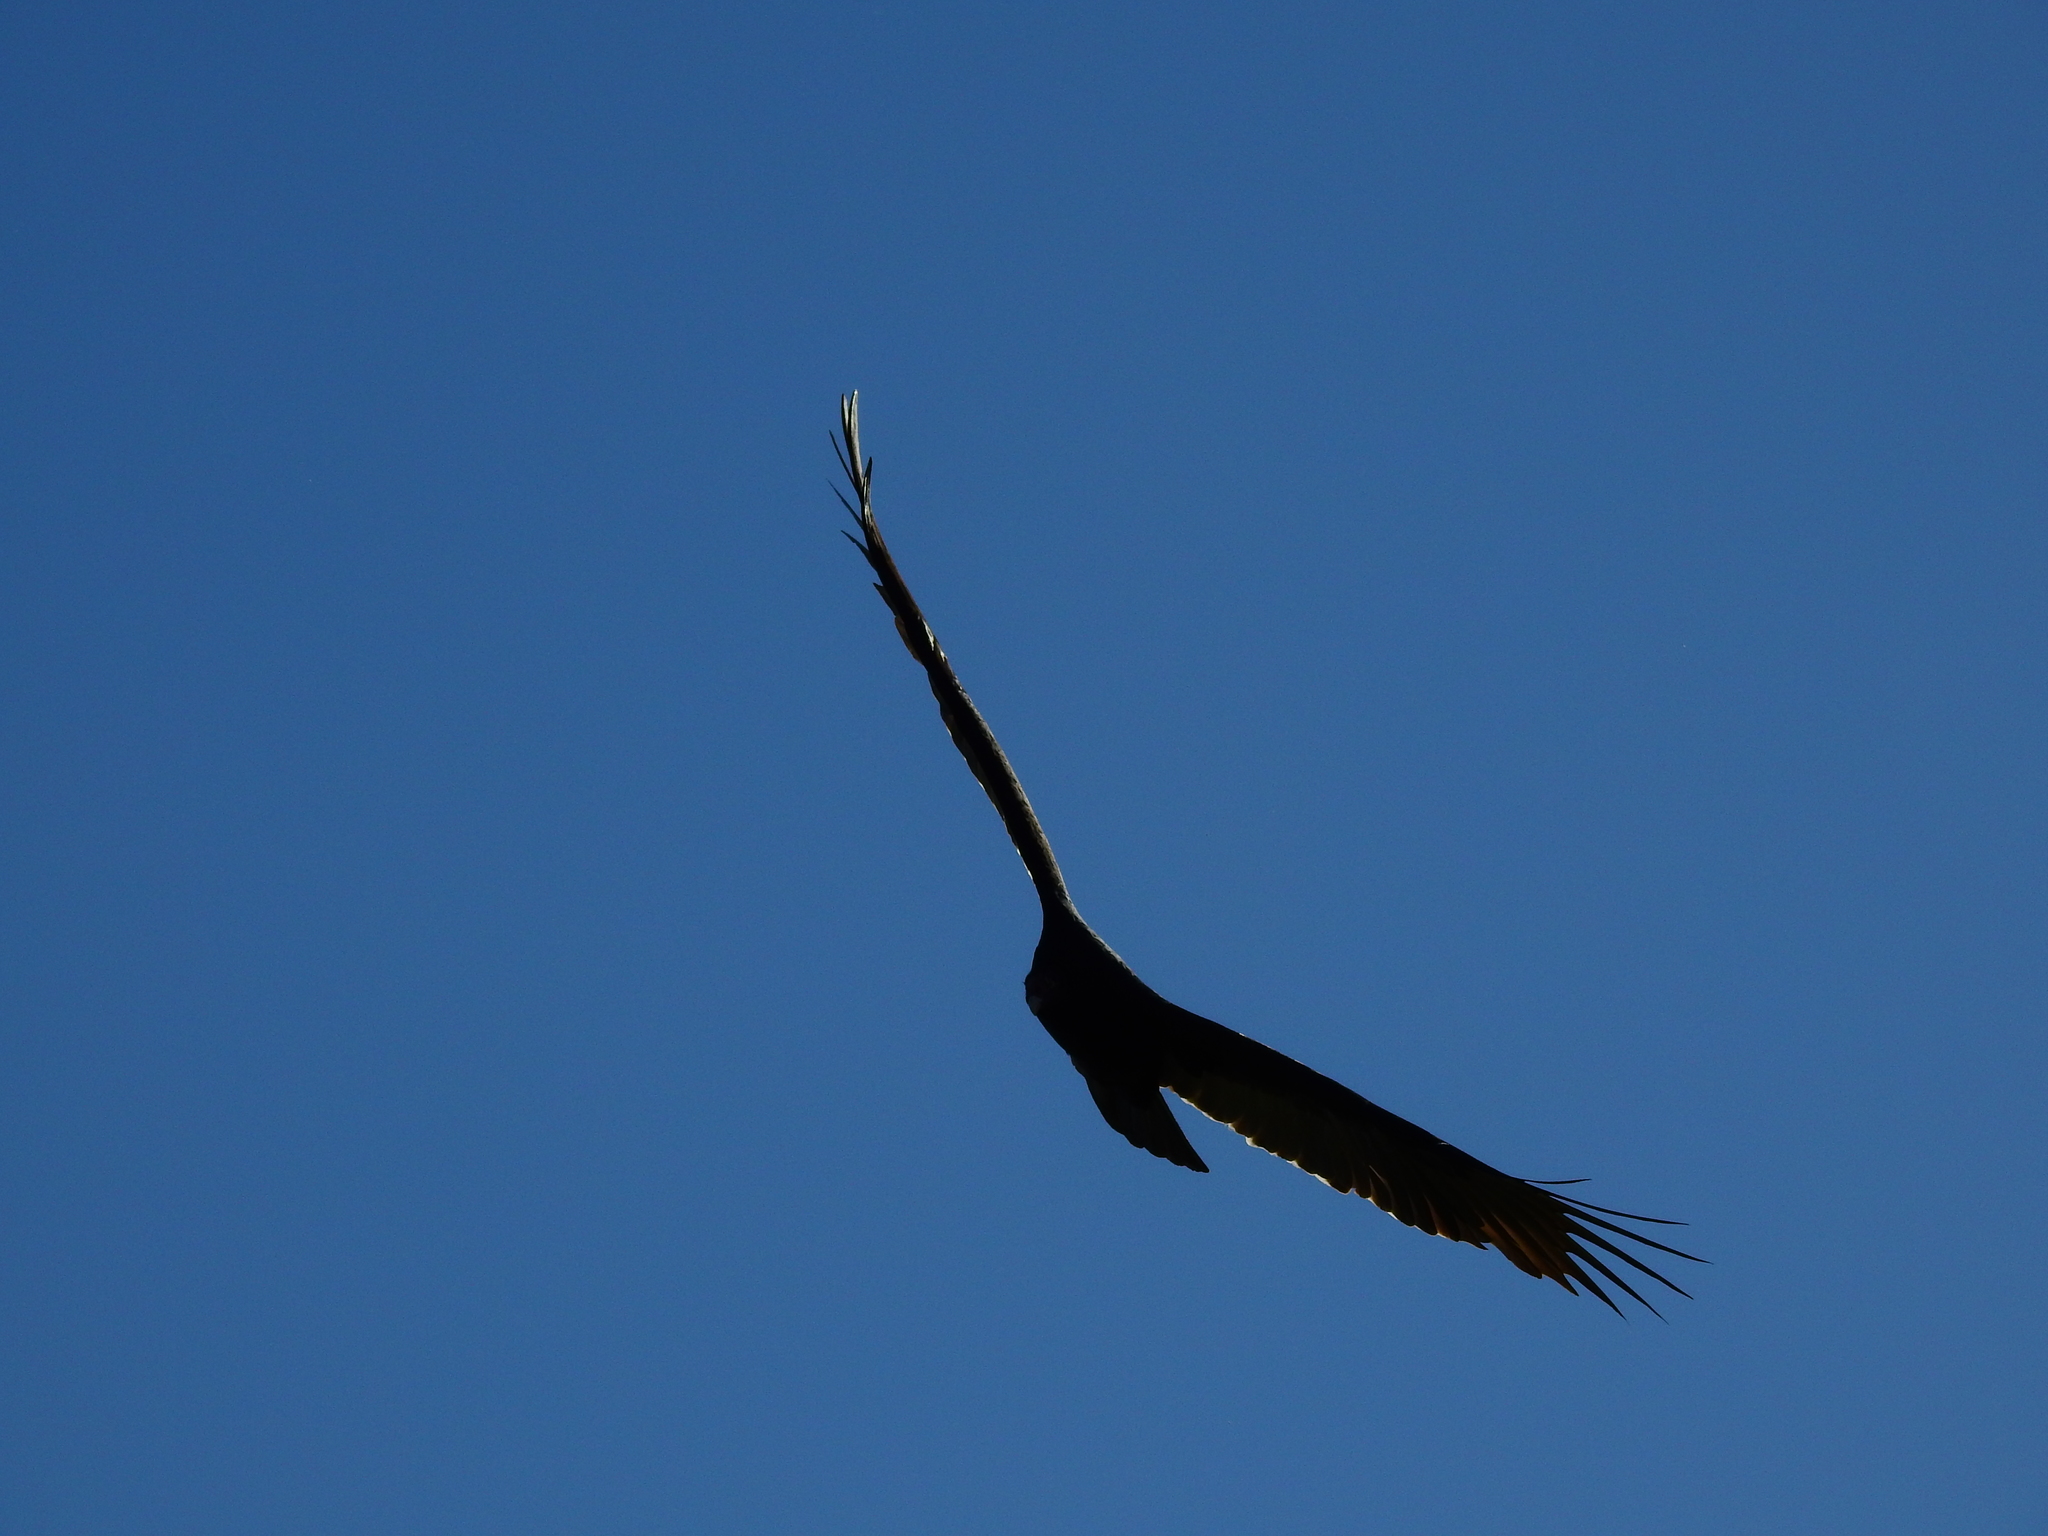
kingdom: Animalia
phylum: Chordata
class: Aves
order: Accipitriformes
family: Cathartidae
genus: Cathartes
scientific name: Cathartes aura
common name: Turkey vulture
